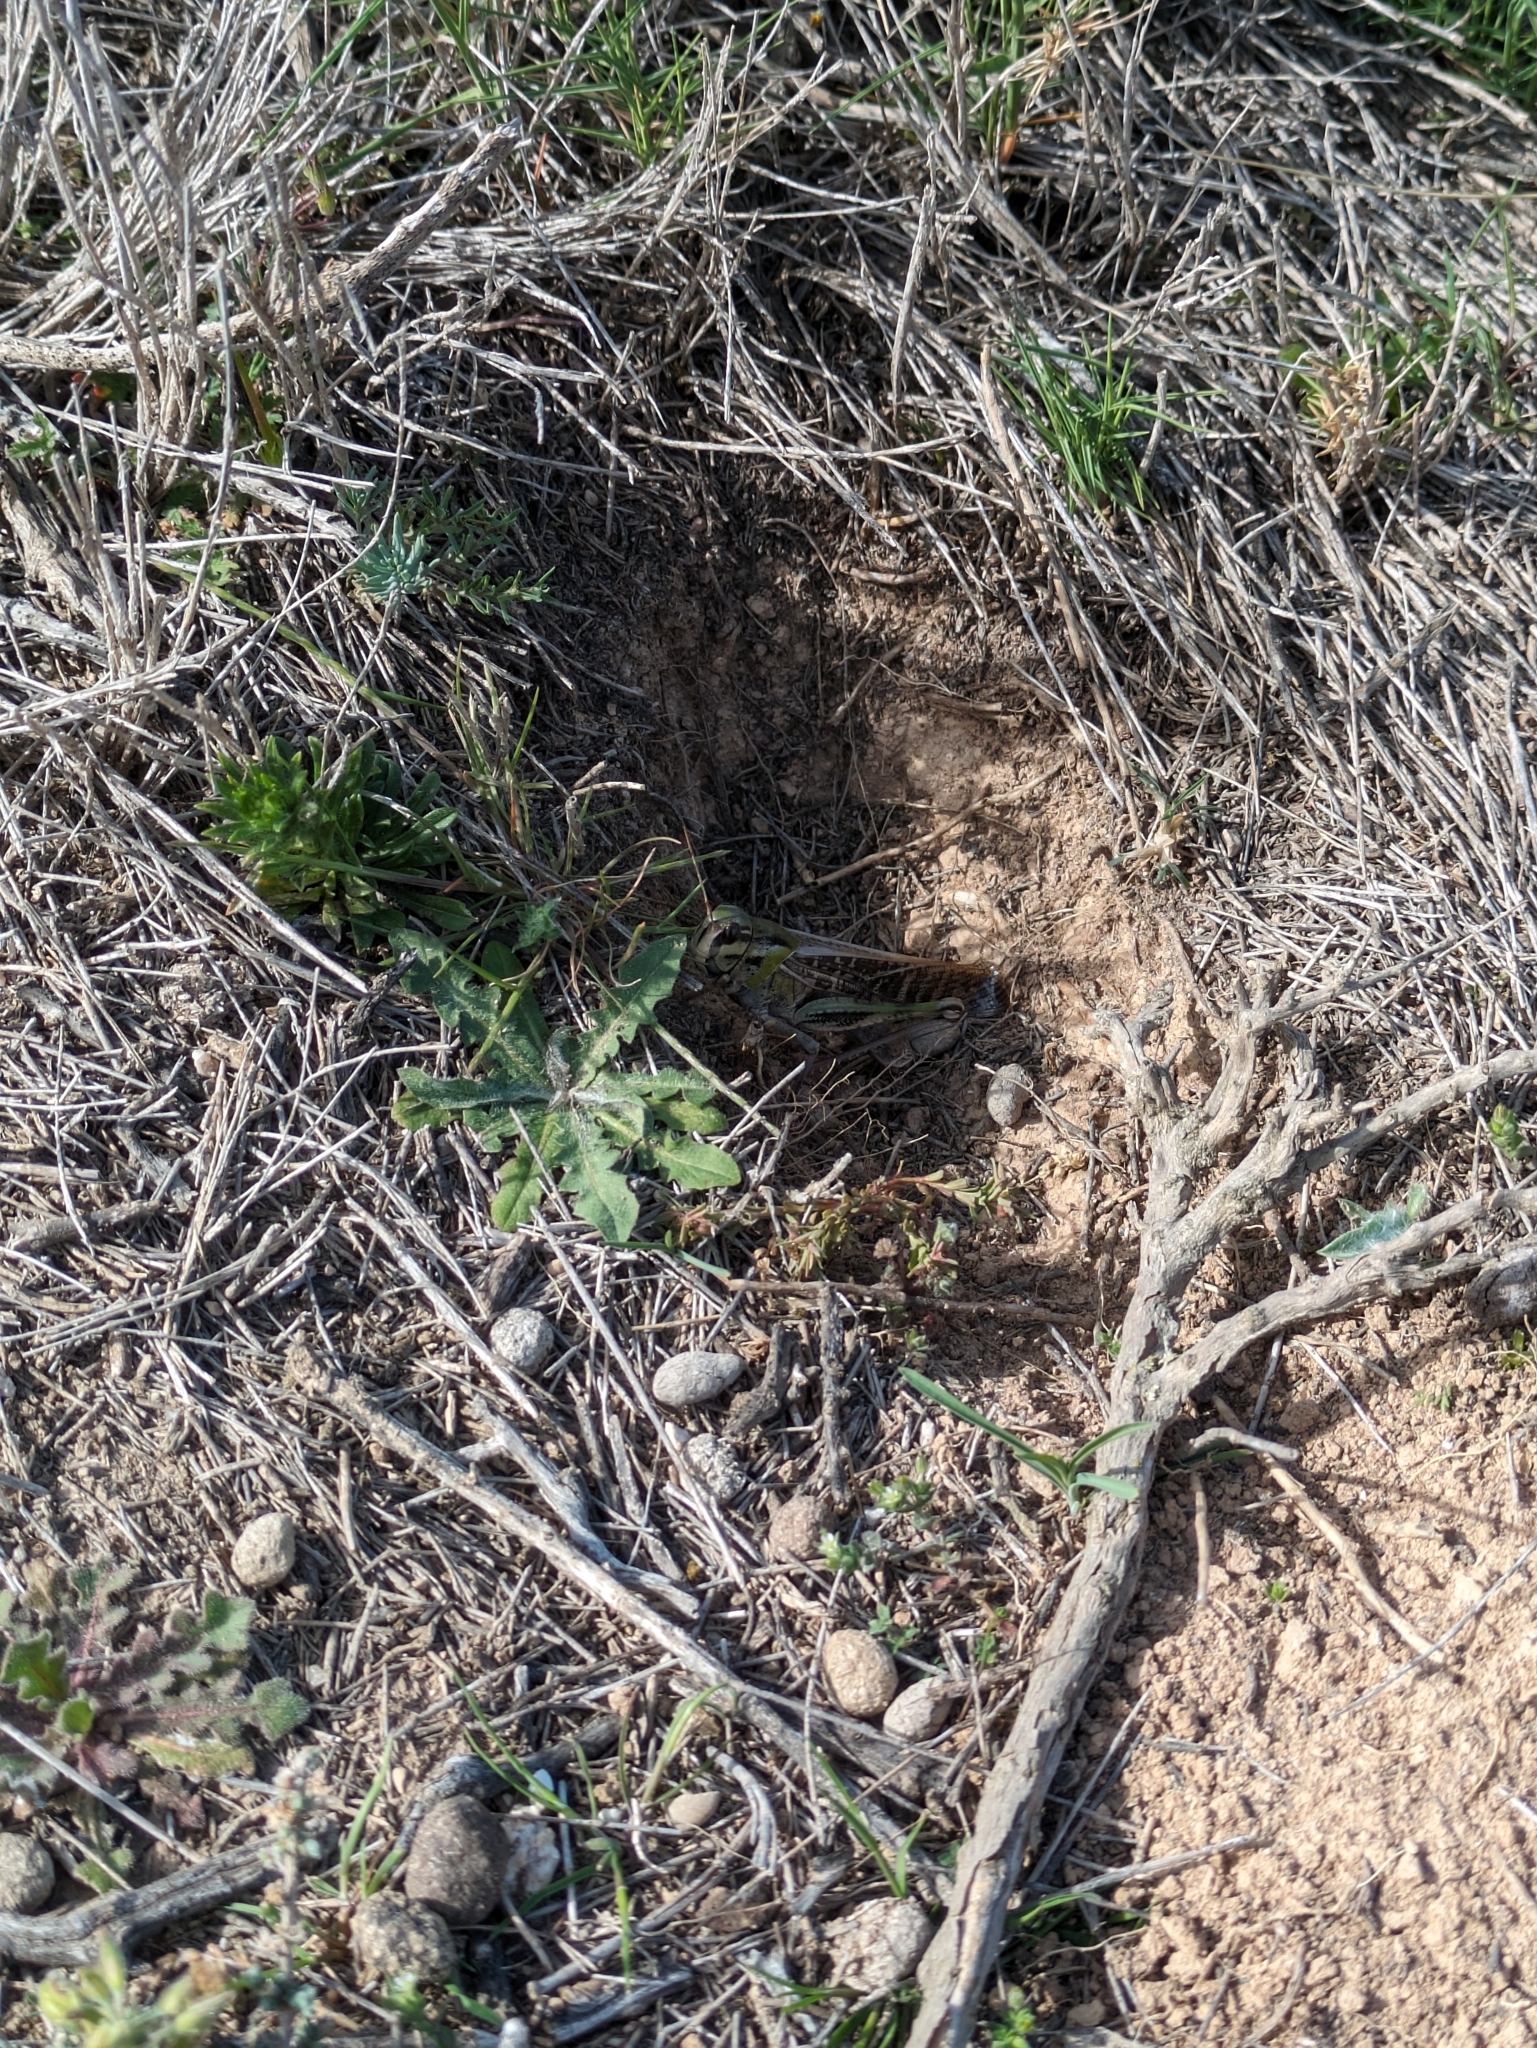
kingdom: Animalia
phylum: Arthropoda
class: Insecta
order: Orthoptera
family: Acrididae
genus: Locusta
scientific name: Locusta migratoria
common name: Migratory locust
